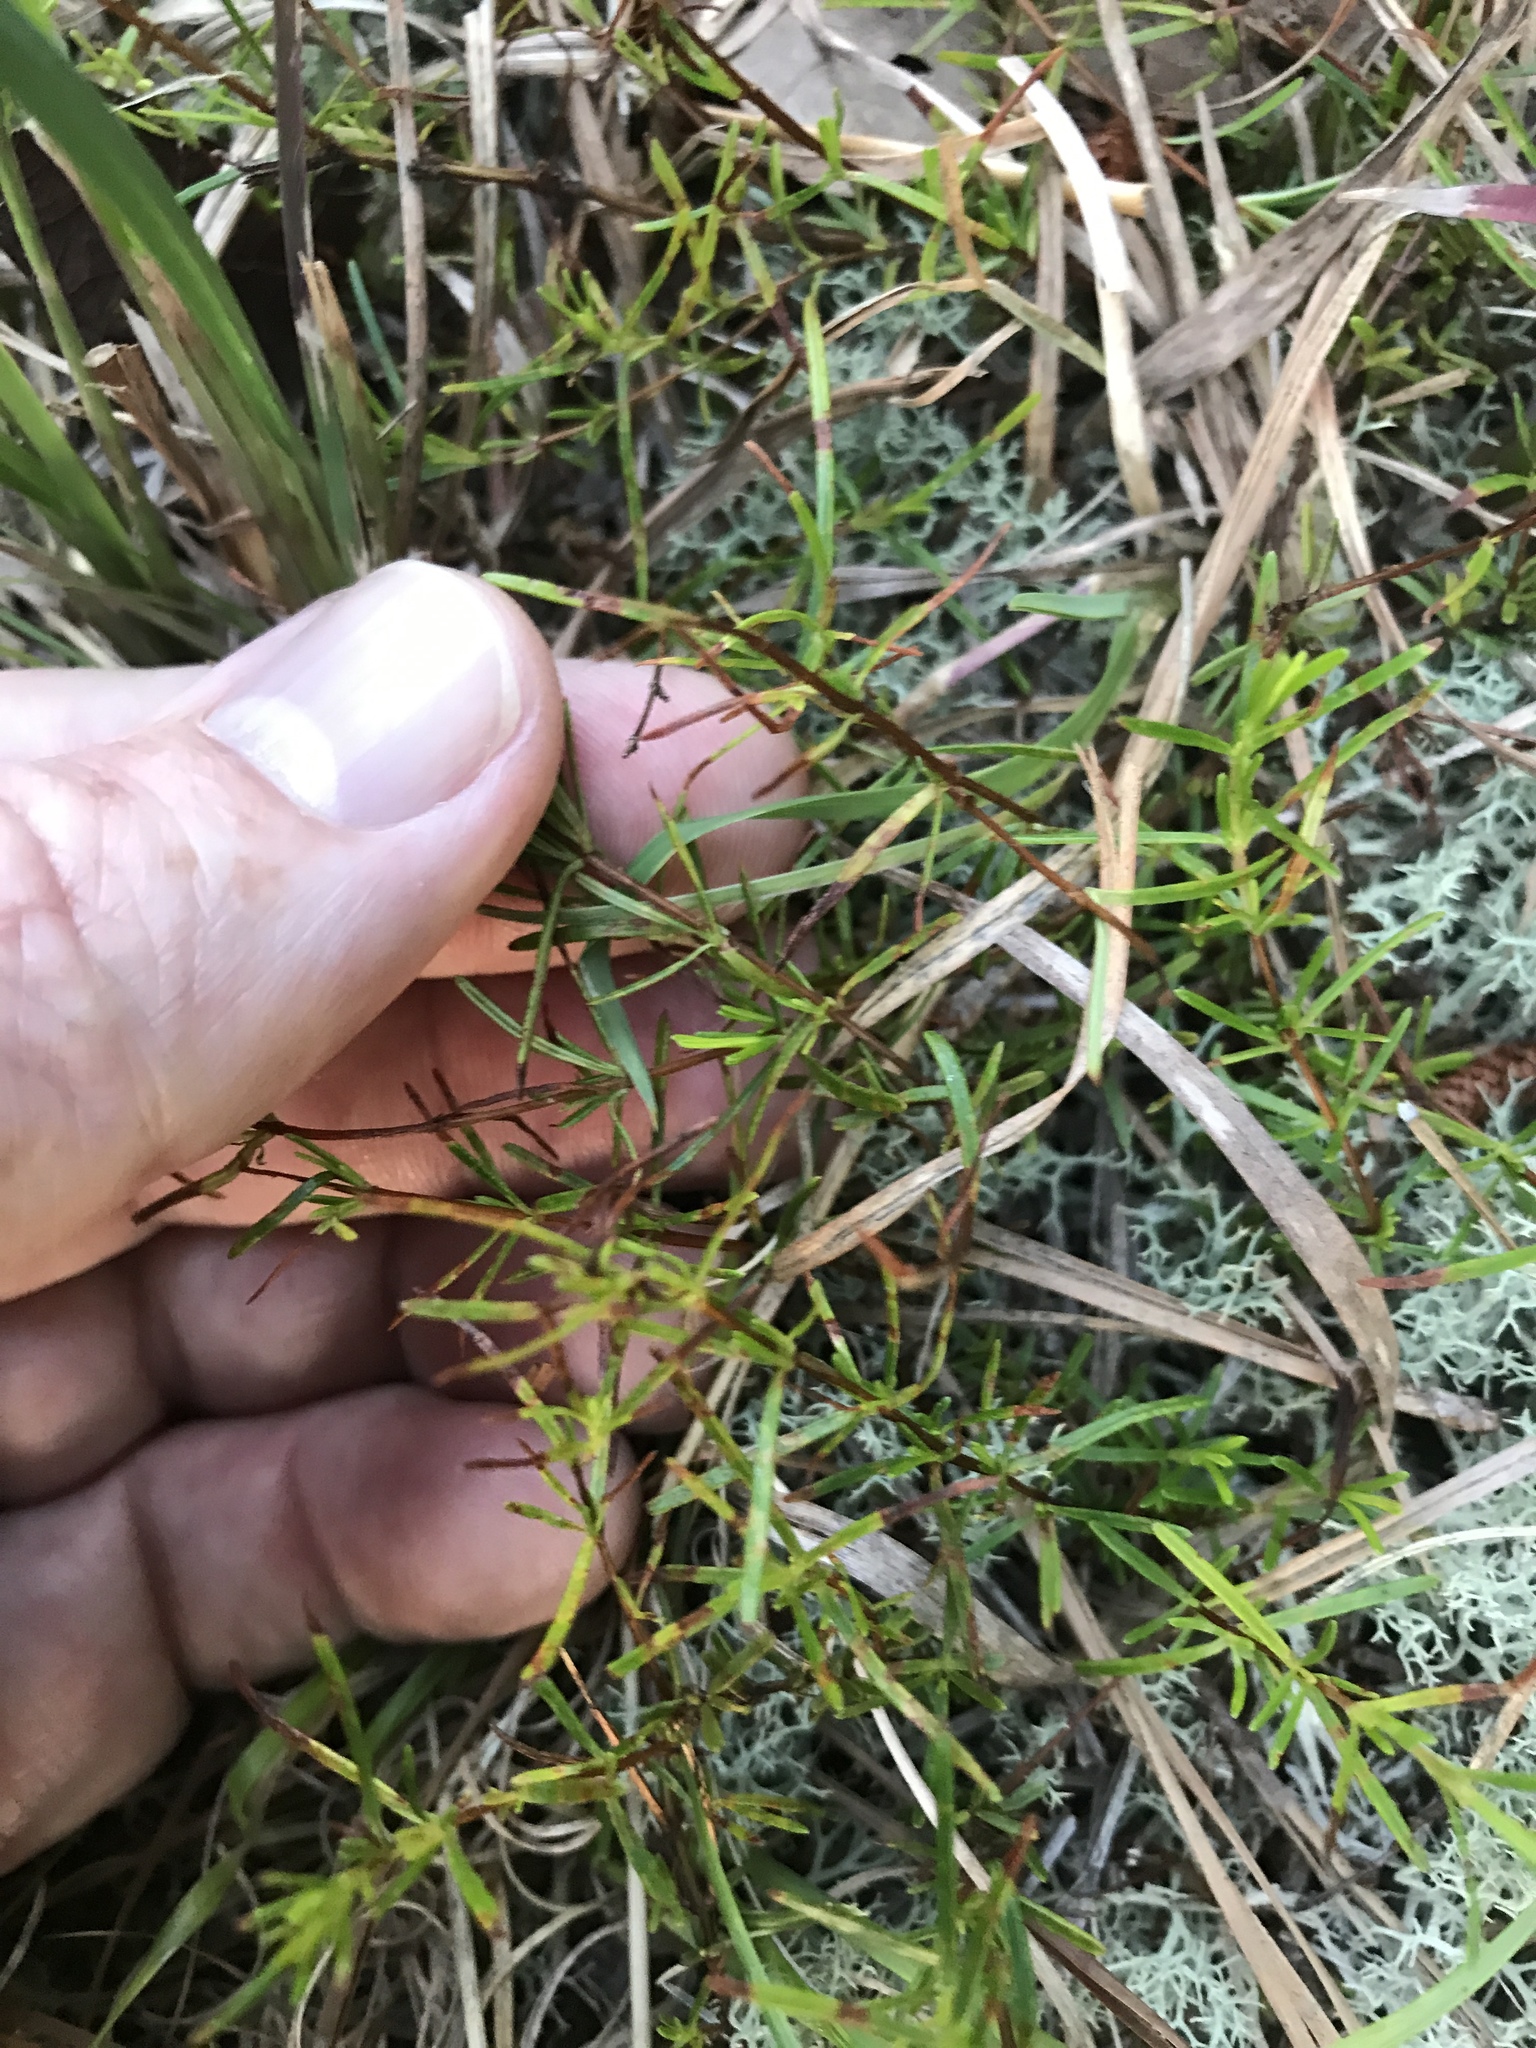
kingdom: Plantae
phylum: Tracheophyta
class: Magnoliopsida
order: Malpighiales
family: Hypericaceae
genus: Hypericum
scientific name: Hypericum lloydii
